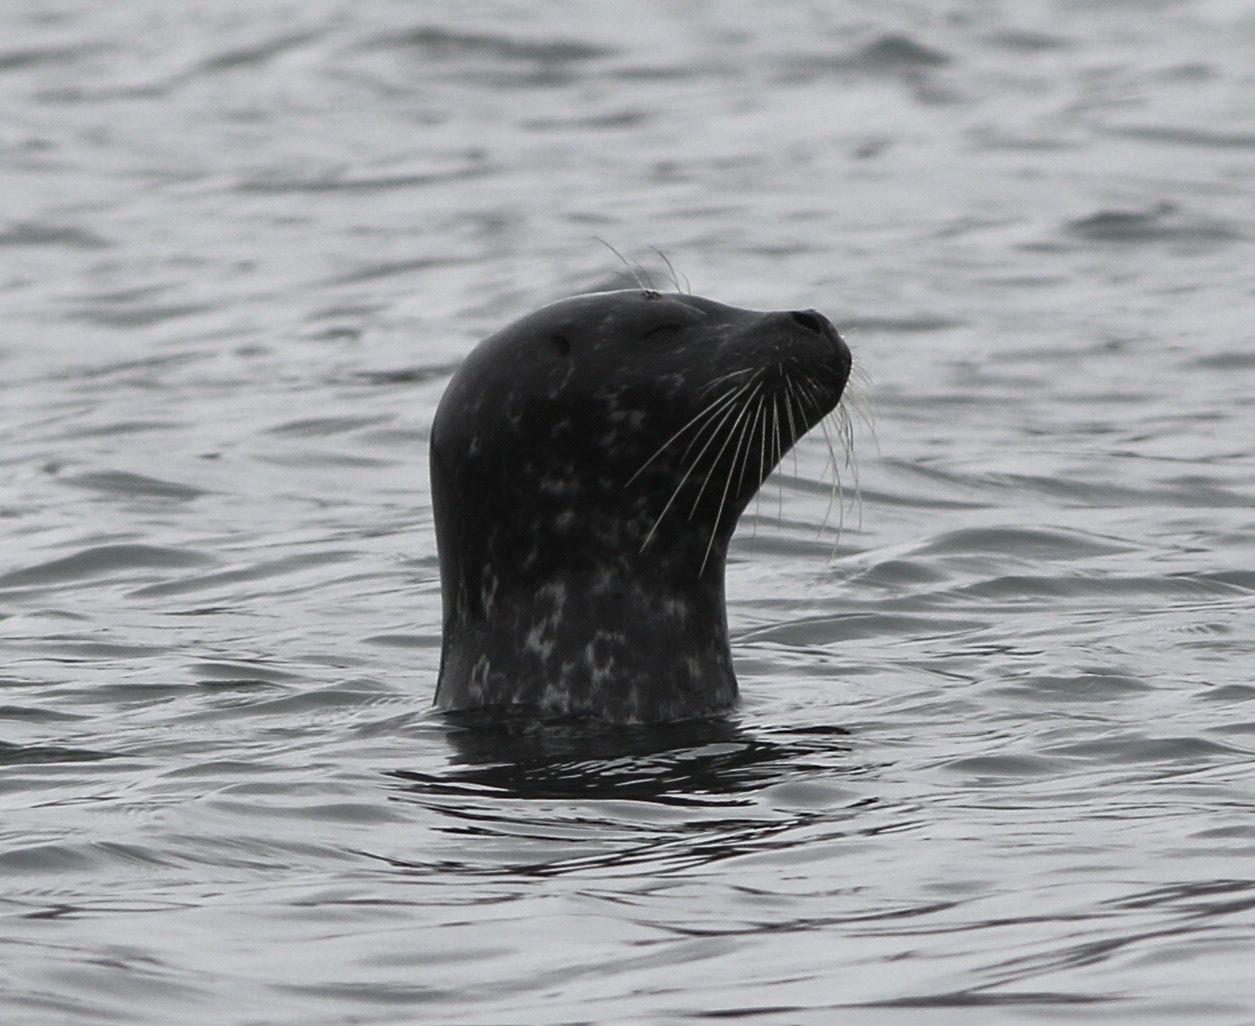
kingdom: Animalia
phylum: Chordata
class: Mammalia
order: Carnivora
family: Phocidae
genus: Phoca
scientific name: Phoca vitulina
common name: Harbor seal
